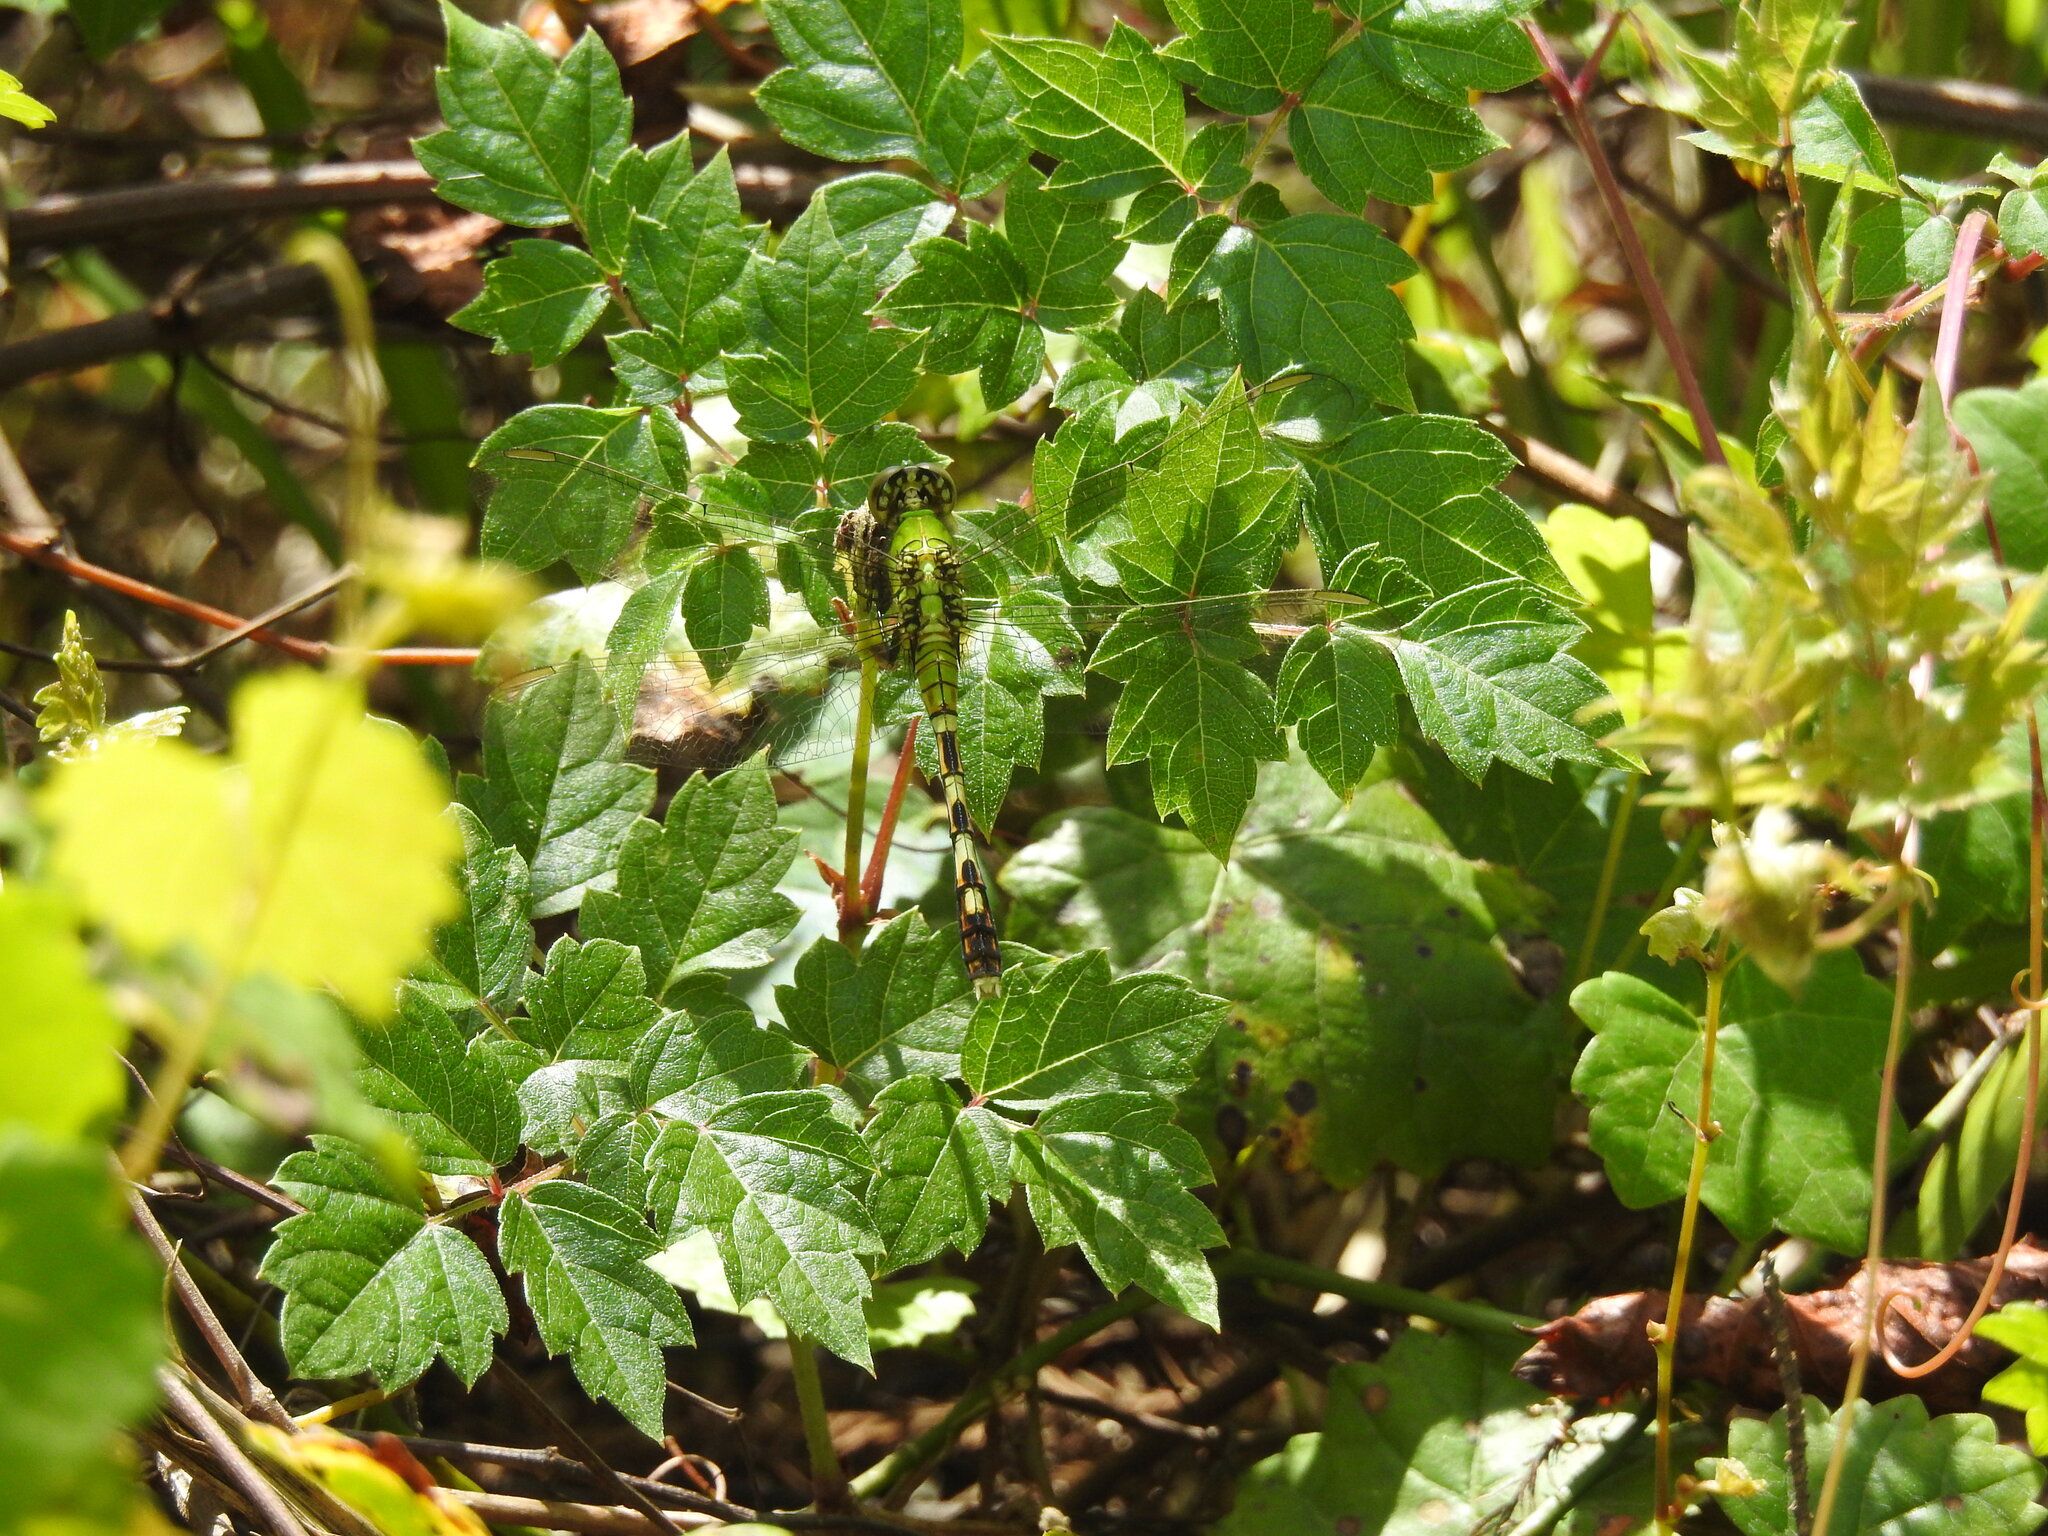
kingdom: Animalia
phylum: Arthropoda
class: Insecta
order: Odonata
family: Libellulidae
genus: Erythemis
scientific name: Erythemis simplicicollis
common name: Eastern pondhawk
